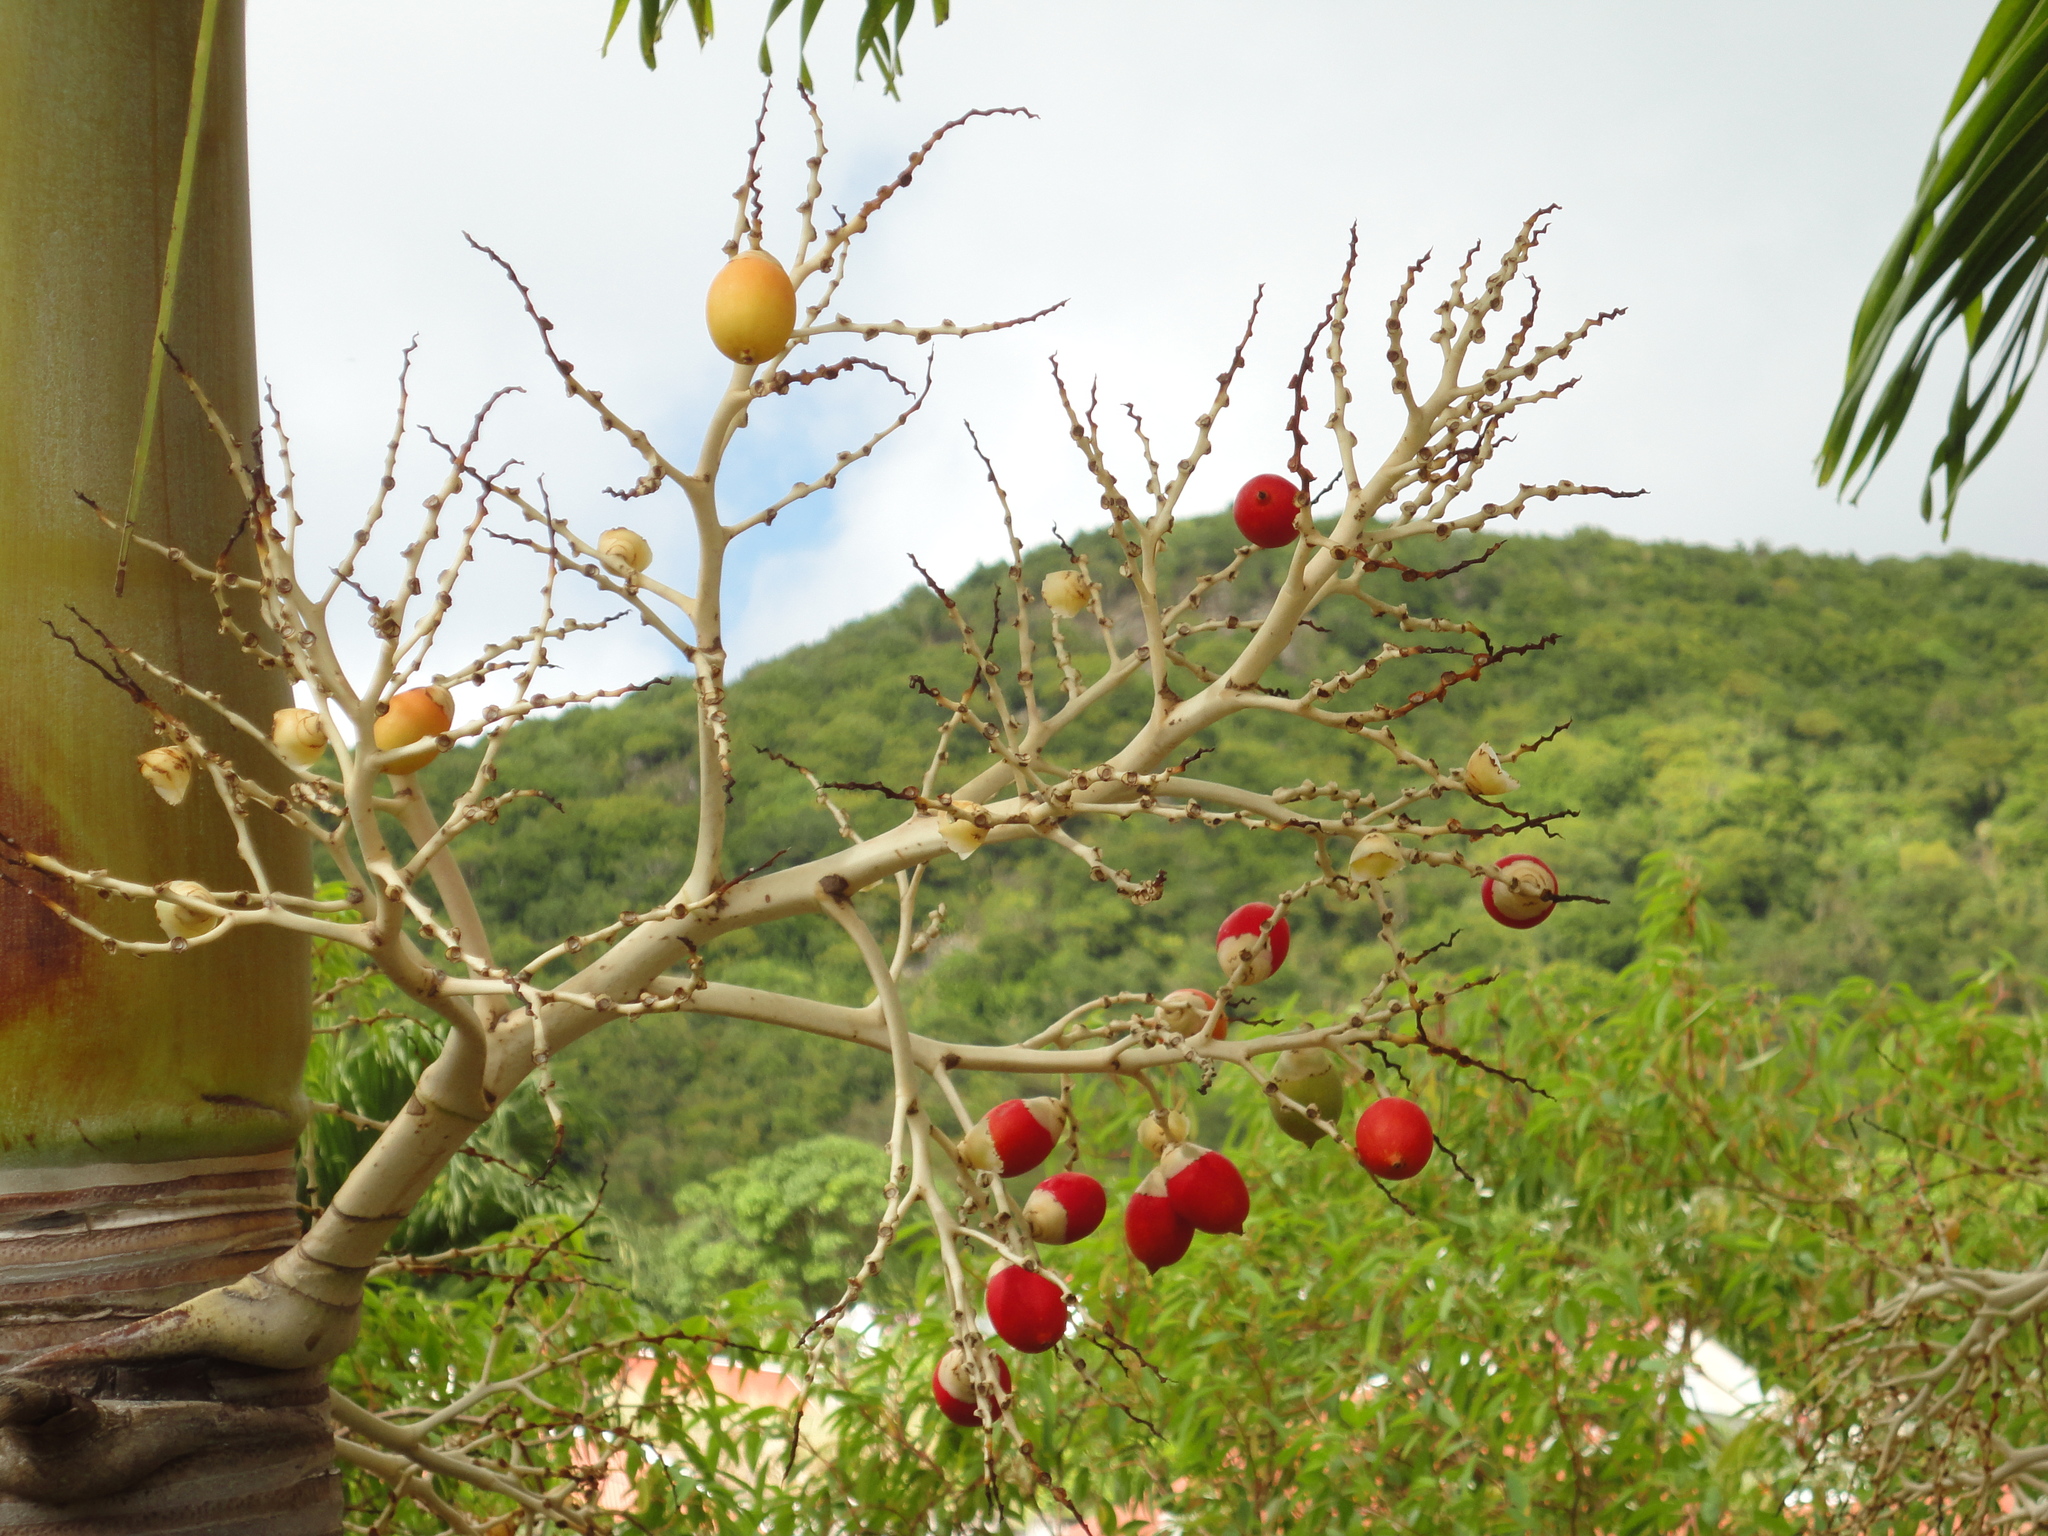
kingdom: Plantae
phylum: Tracheophyta
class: Liliopsida
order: Arecales
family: Arecaceae
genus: Adonidia
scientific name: Adonidia merrillii
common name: Manila palm
